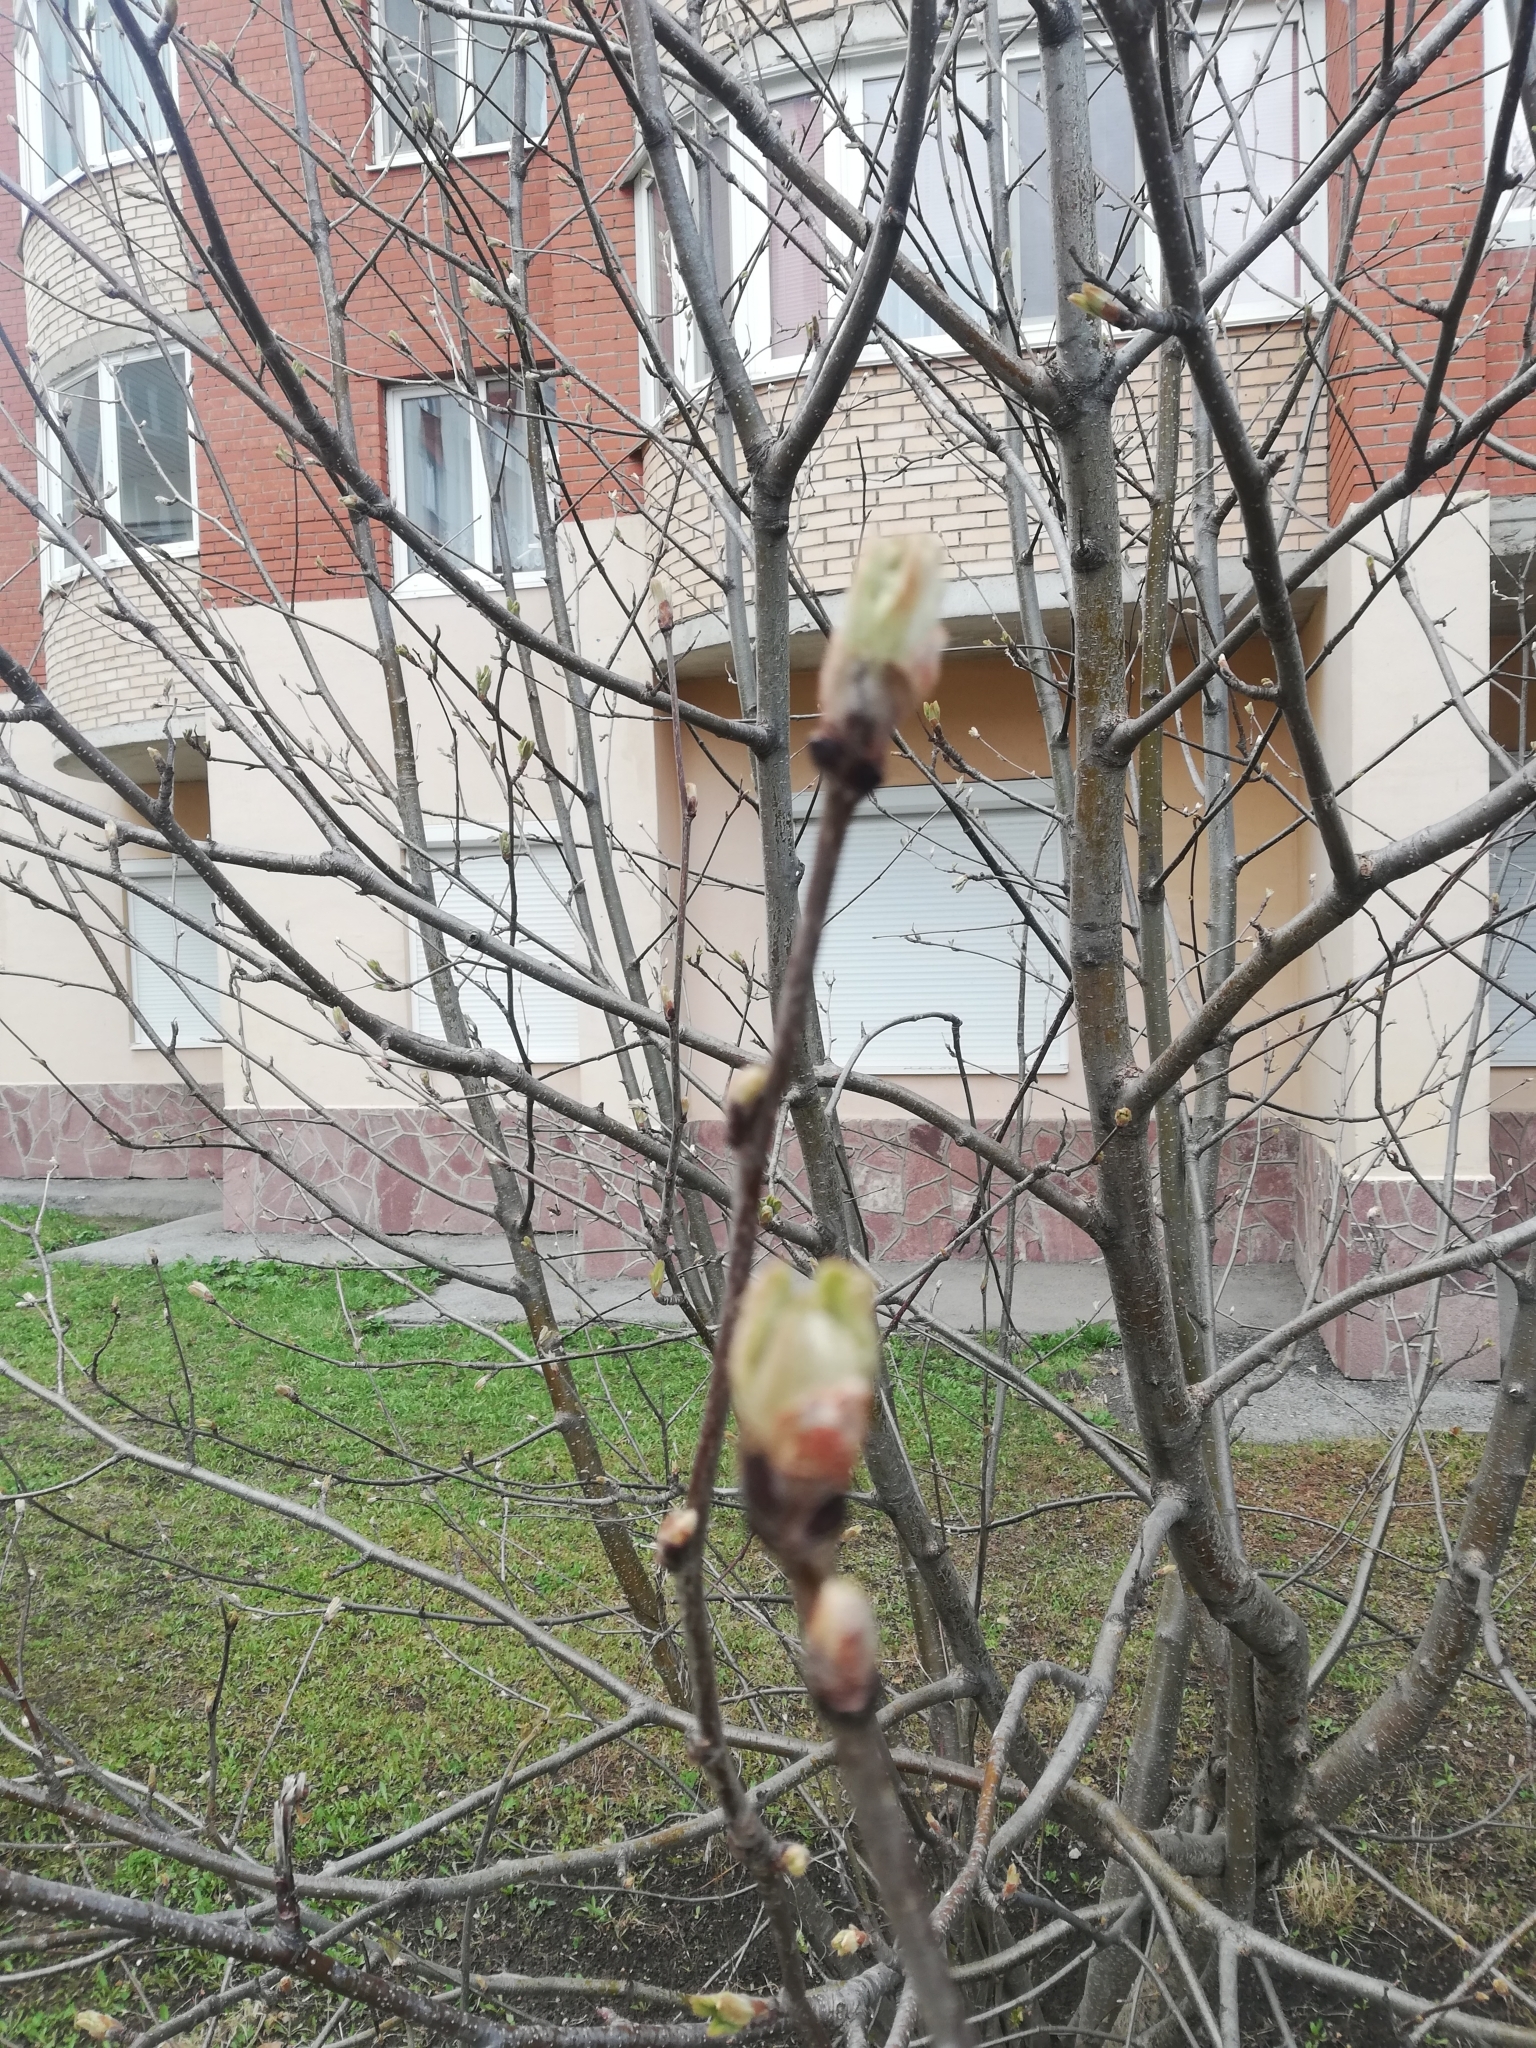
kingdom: Plantae
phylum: Tracheophyta
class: Magnoliopsida
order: Rosales
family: Rosaceae
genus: Sorbus
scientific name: Sorbus aucuparia
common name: Rowan
